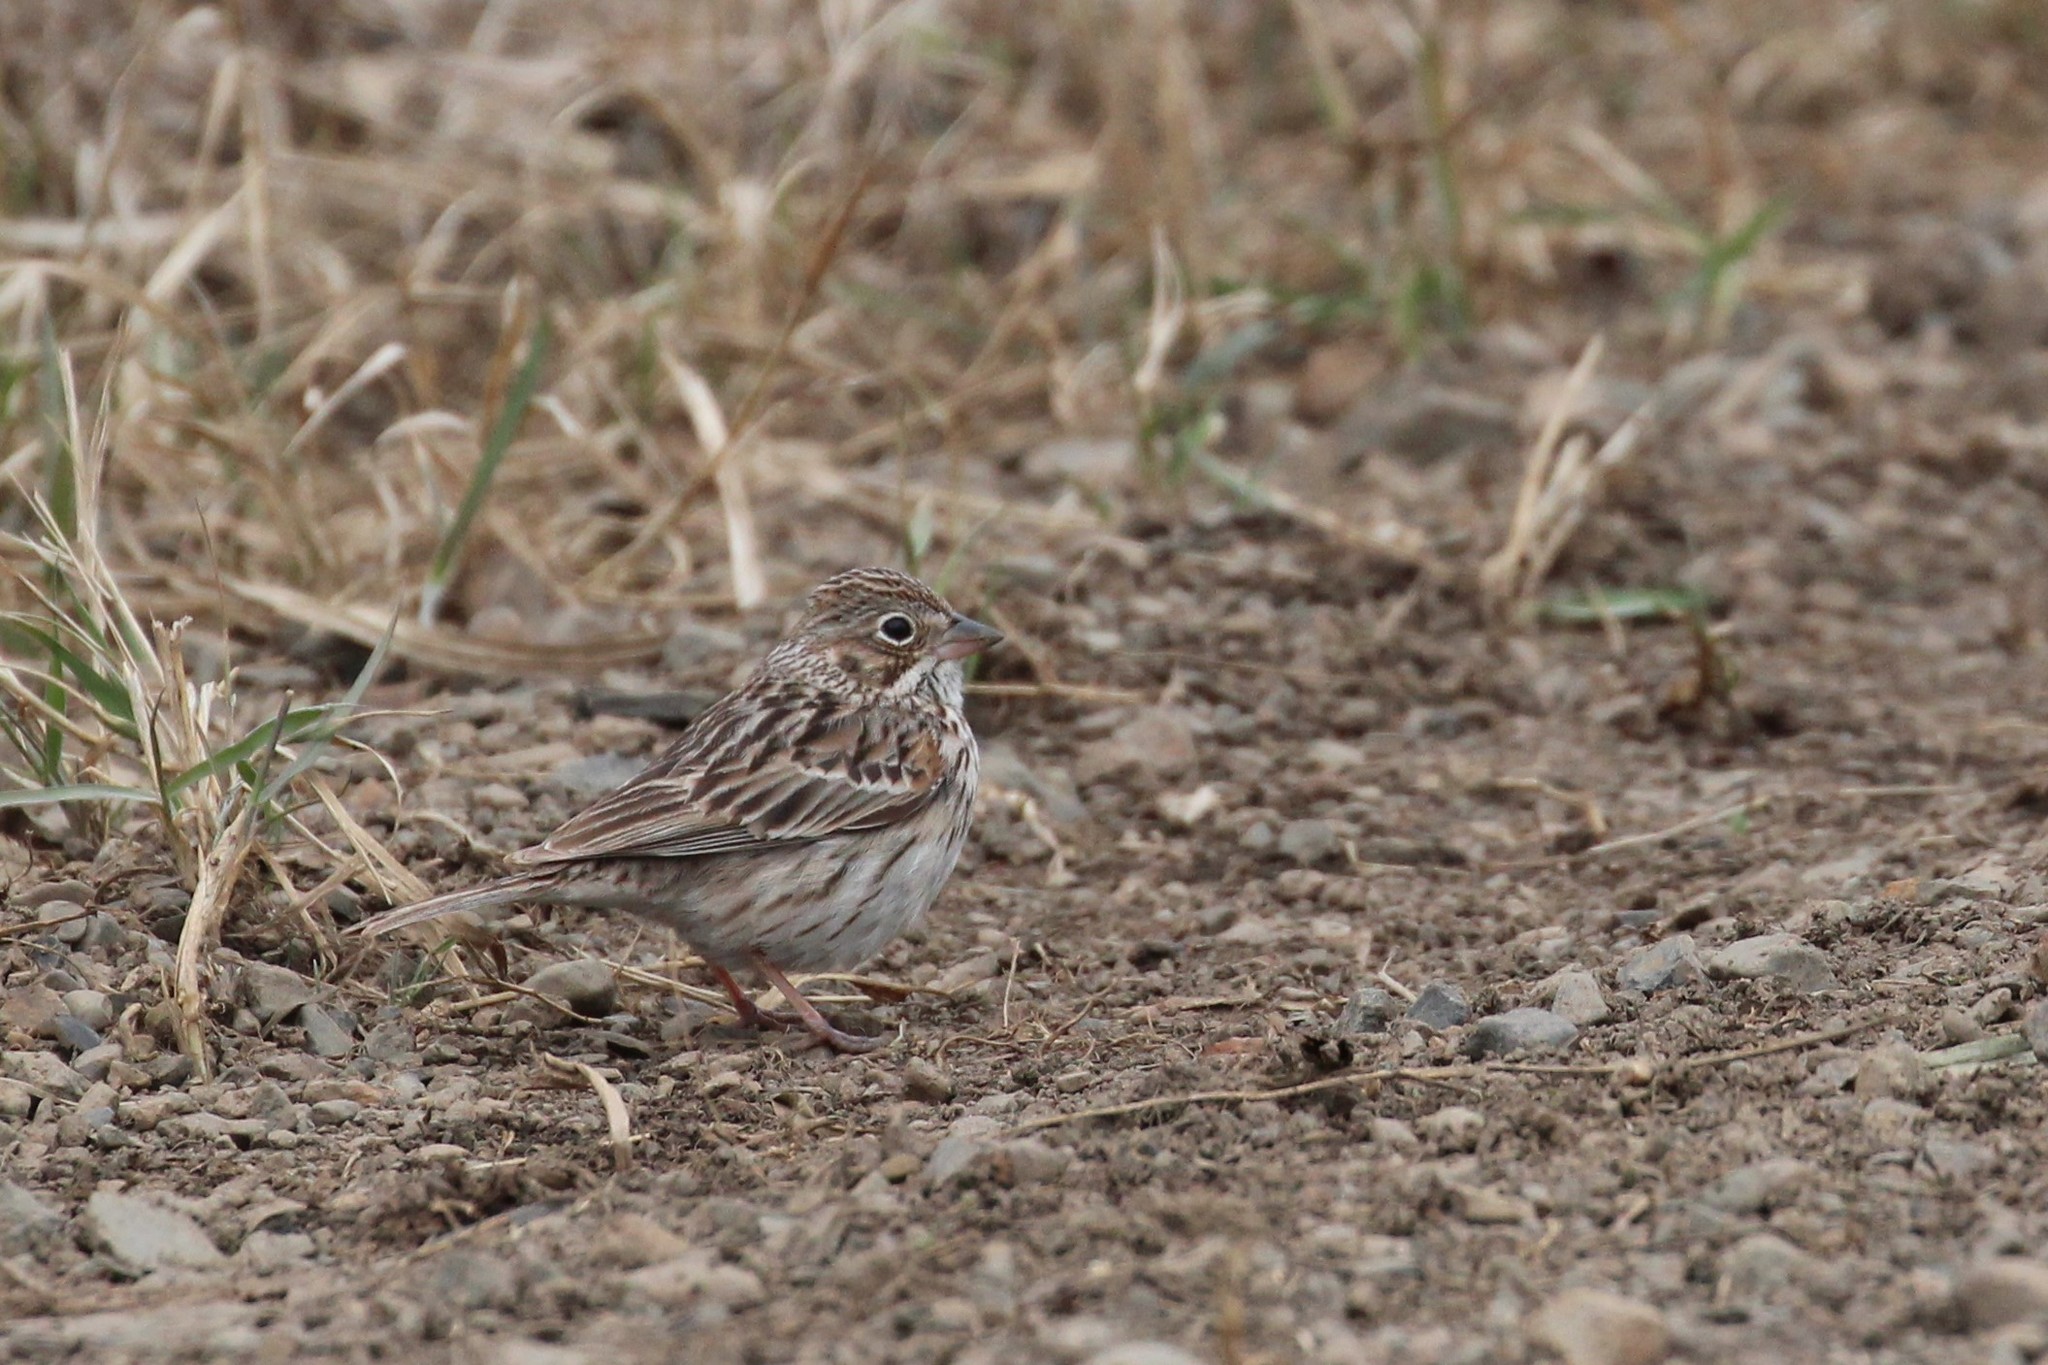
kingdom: Animalia
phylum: Chordata
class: Aves
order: Passeriformes
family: Passerellidae
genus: Pooecetes
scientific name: Pooecetes gramineus
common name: Vesper sparrow
